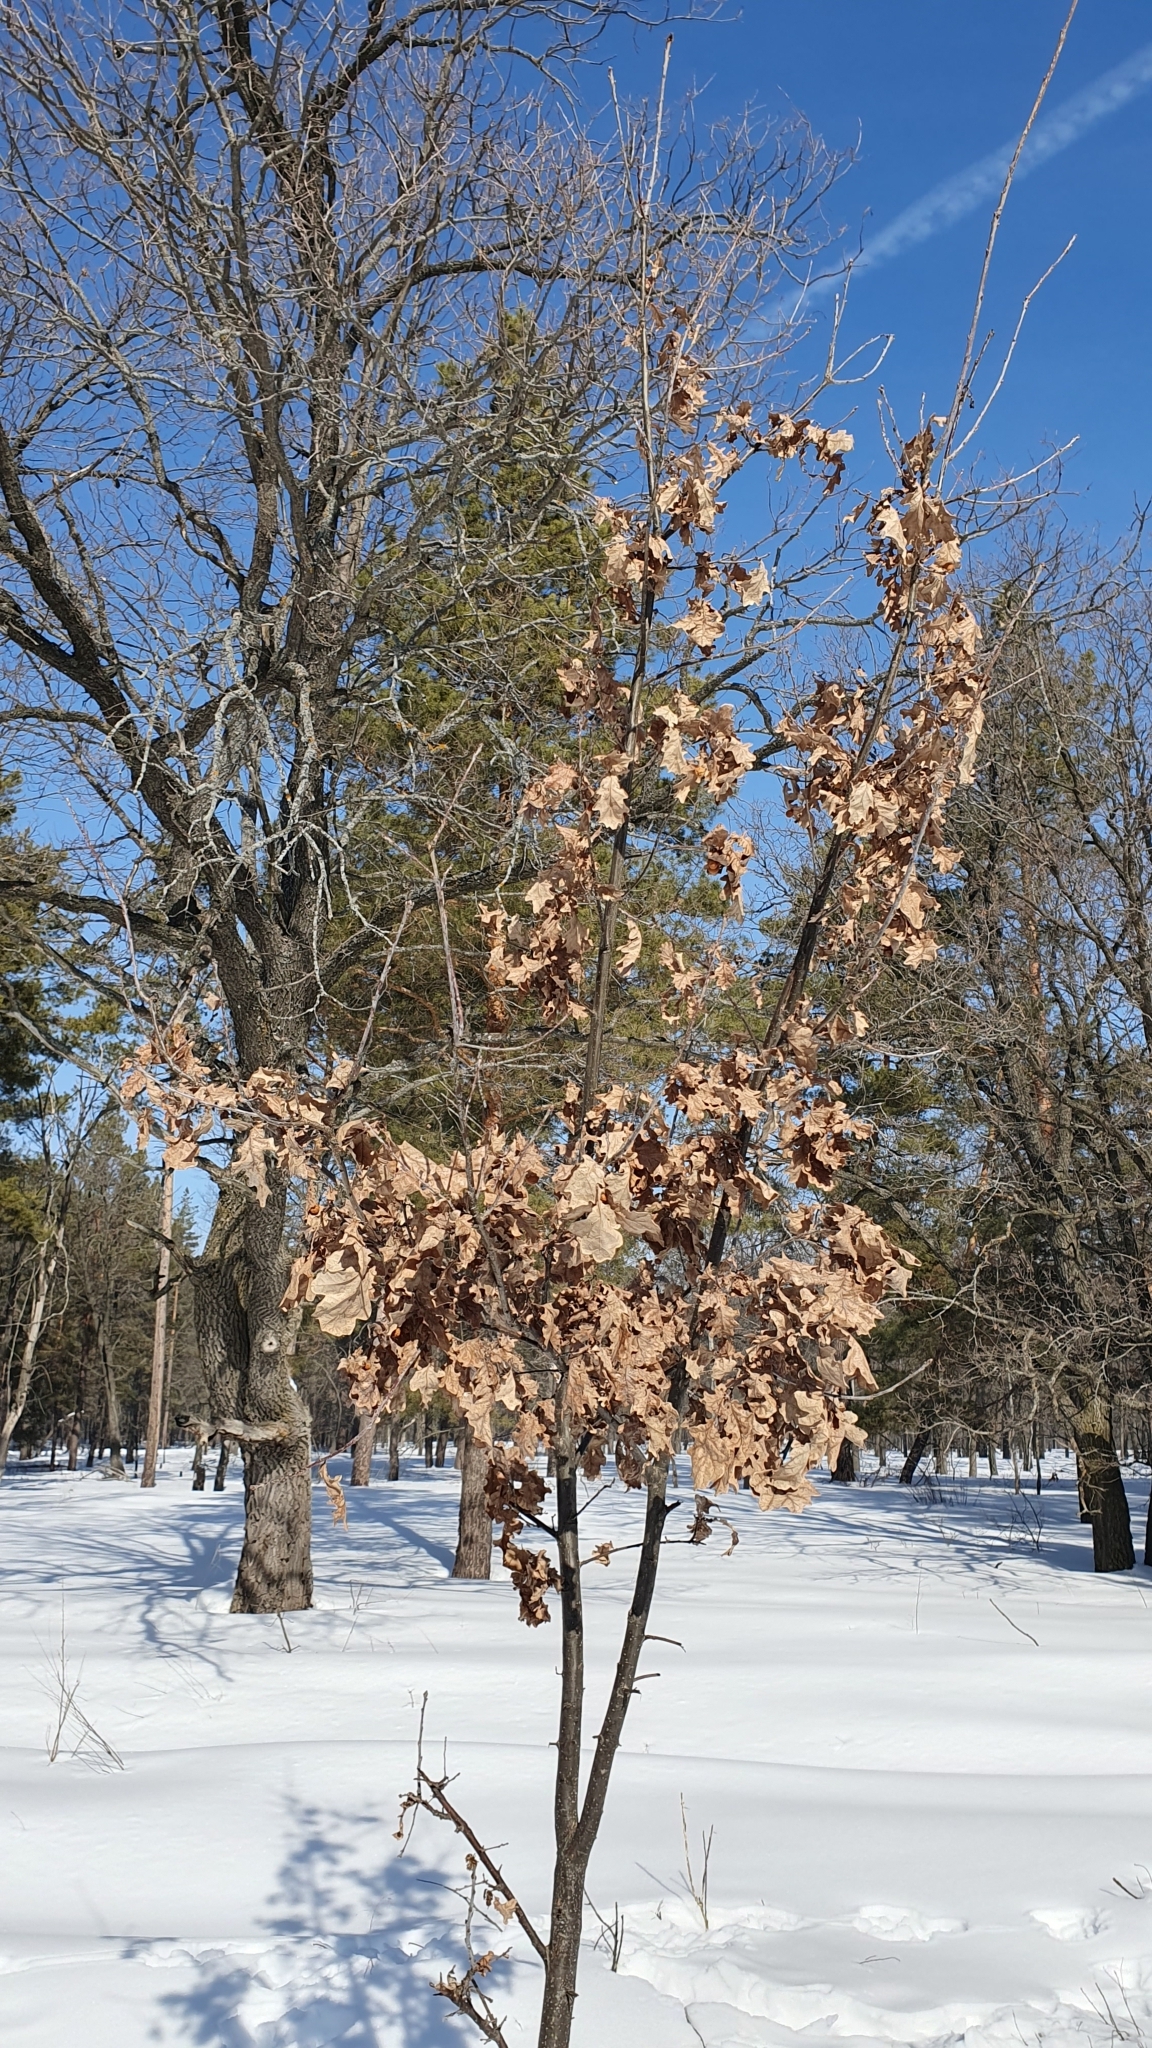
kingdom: Plantae
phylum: Tracheophyta
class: Magnoliopsida
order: Fagales
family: Fagaceae
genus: Quercus
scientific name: Quercus robur
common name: Pedunculate oak
